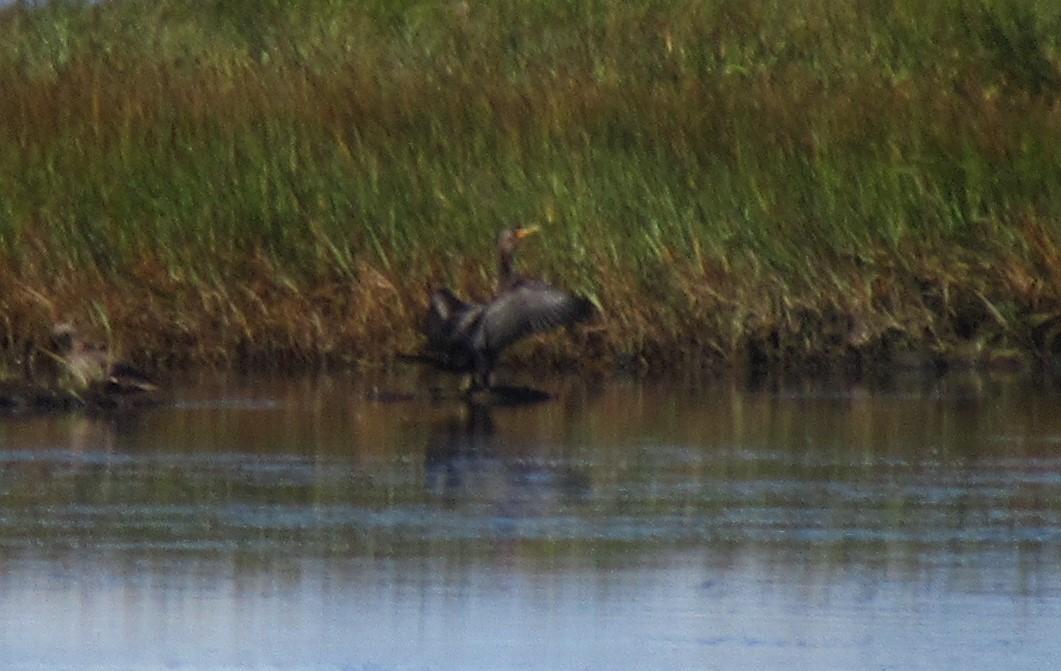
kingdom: Animalia
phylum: Chordata
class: Aves
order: Suliformes
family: Phalacrocoracidae
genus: Phalacrocorax
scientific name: Phalacrocorax auritus
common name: Double-crested cormorant
